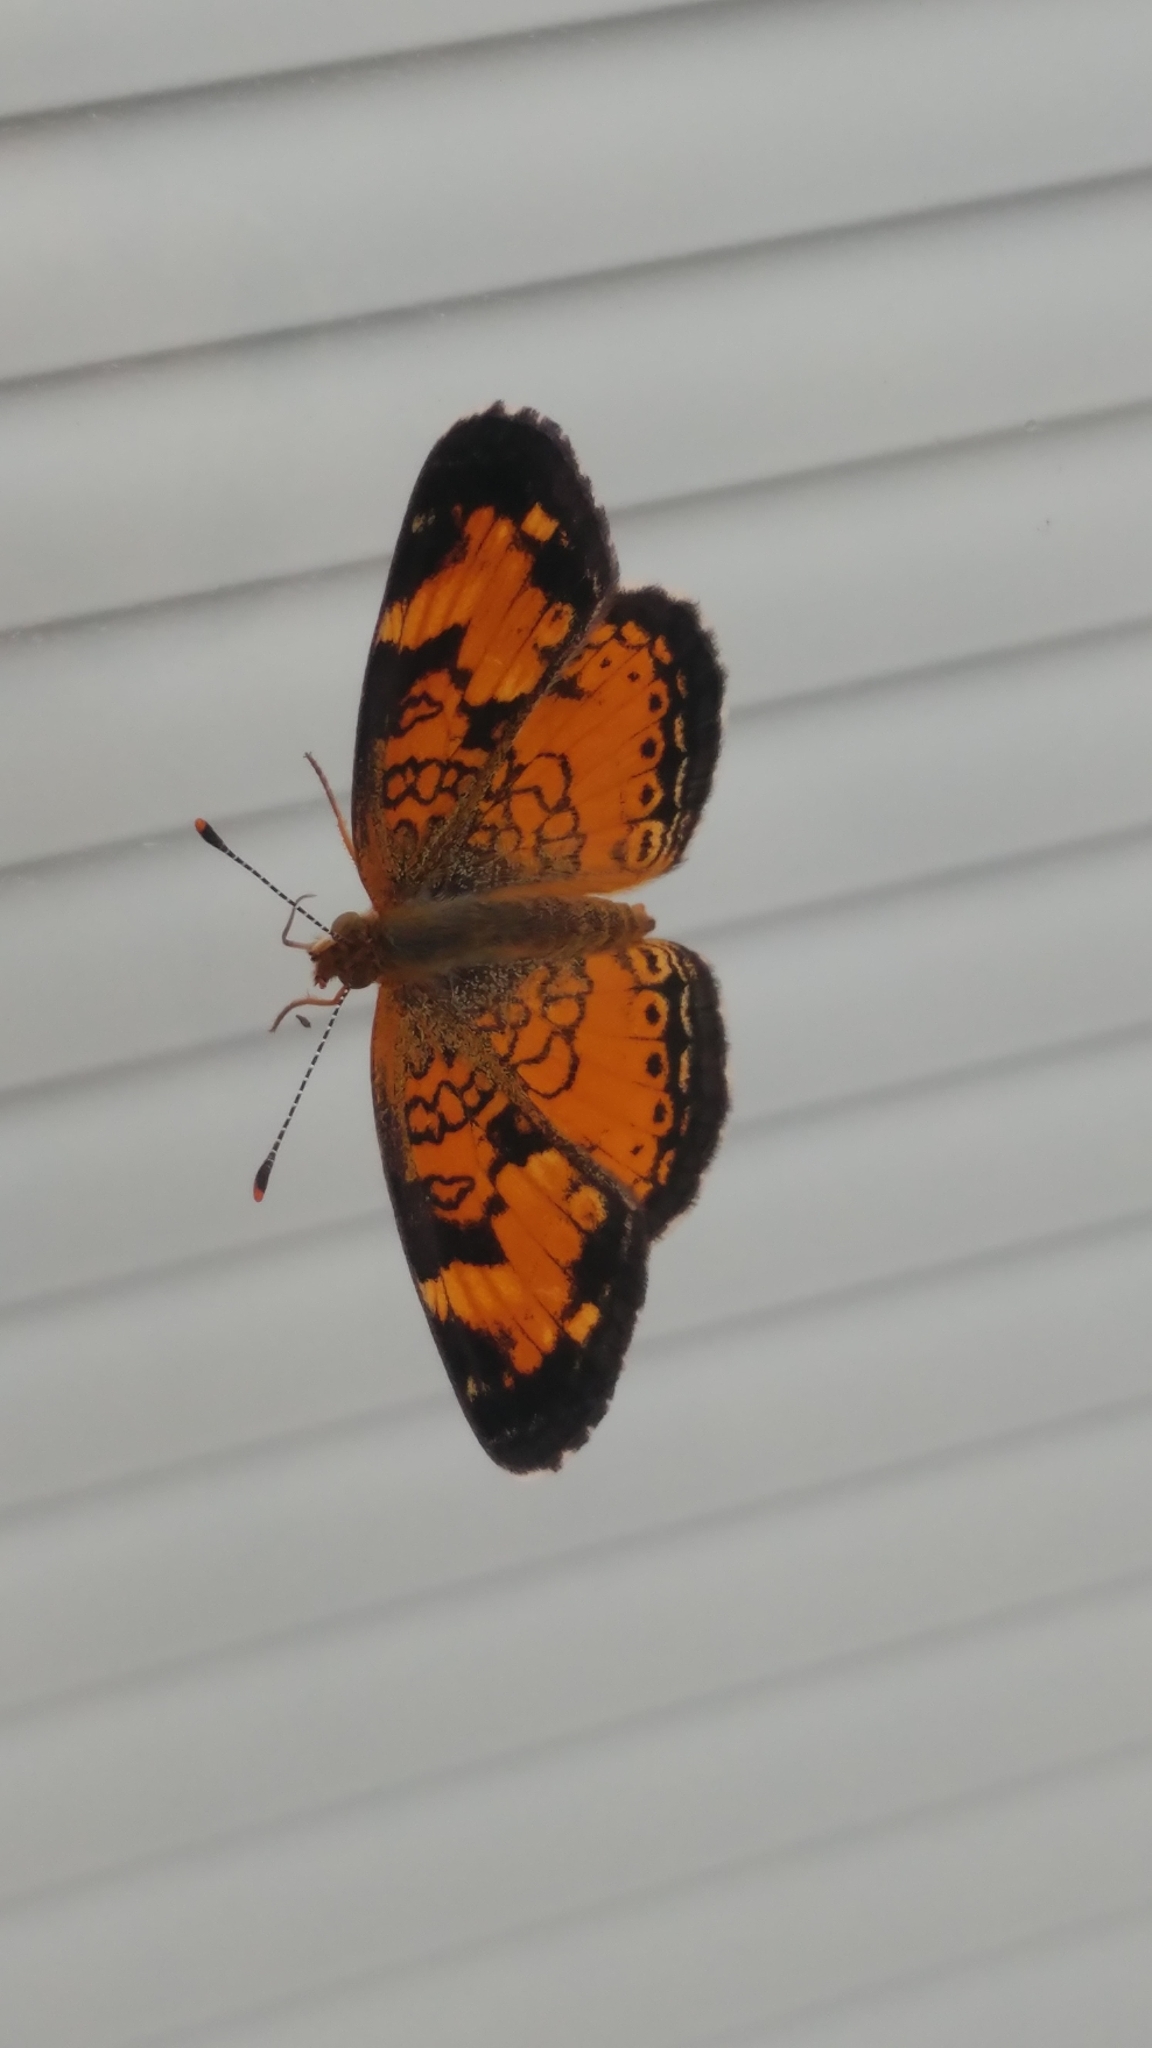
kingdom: Animalia
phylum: Arthropoda
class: Insecta
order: Lepidoptera
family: Nymphalidae
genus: Phyciodes
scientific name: Phyciodes tharos
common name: Pearl crescent
